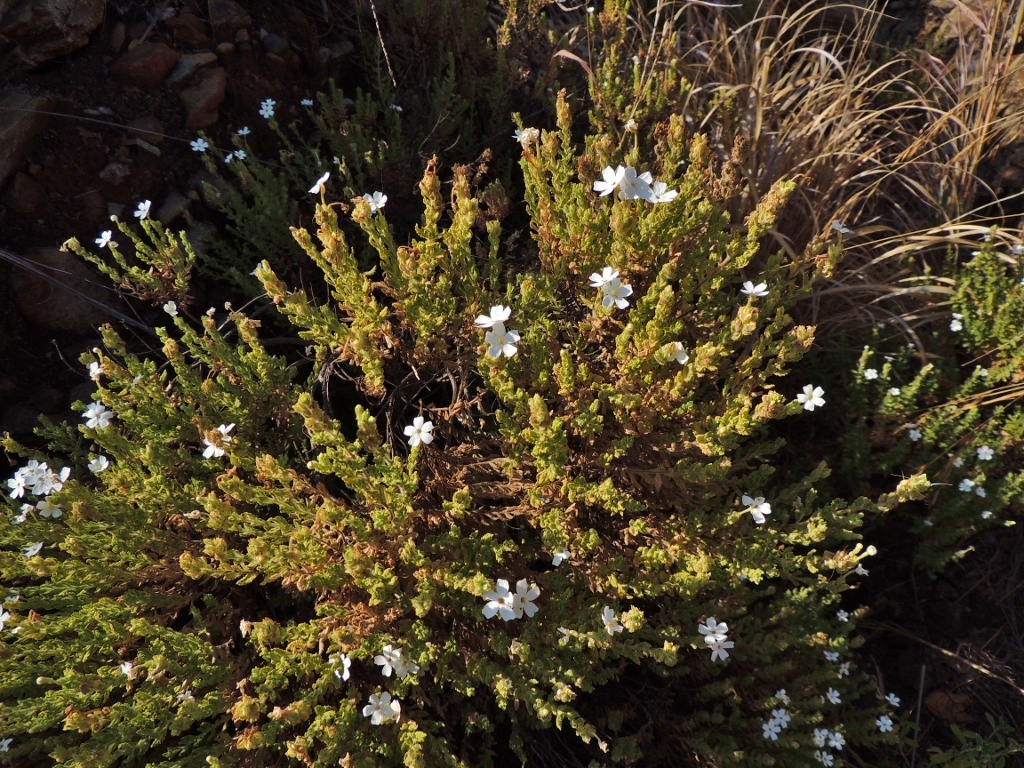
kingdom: Plantae
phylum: Tracheophyta
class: Magnoliopsida
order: Lamiales
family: Scrophulariaceae
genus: Jamesbrittenia
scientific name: Jamesbrittenia fodina
